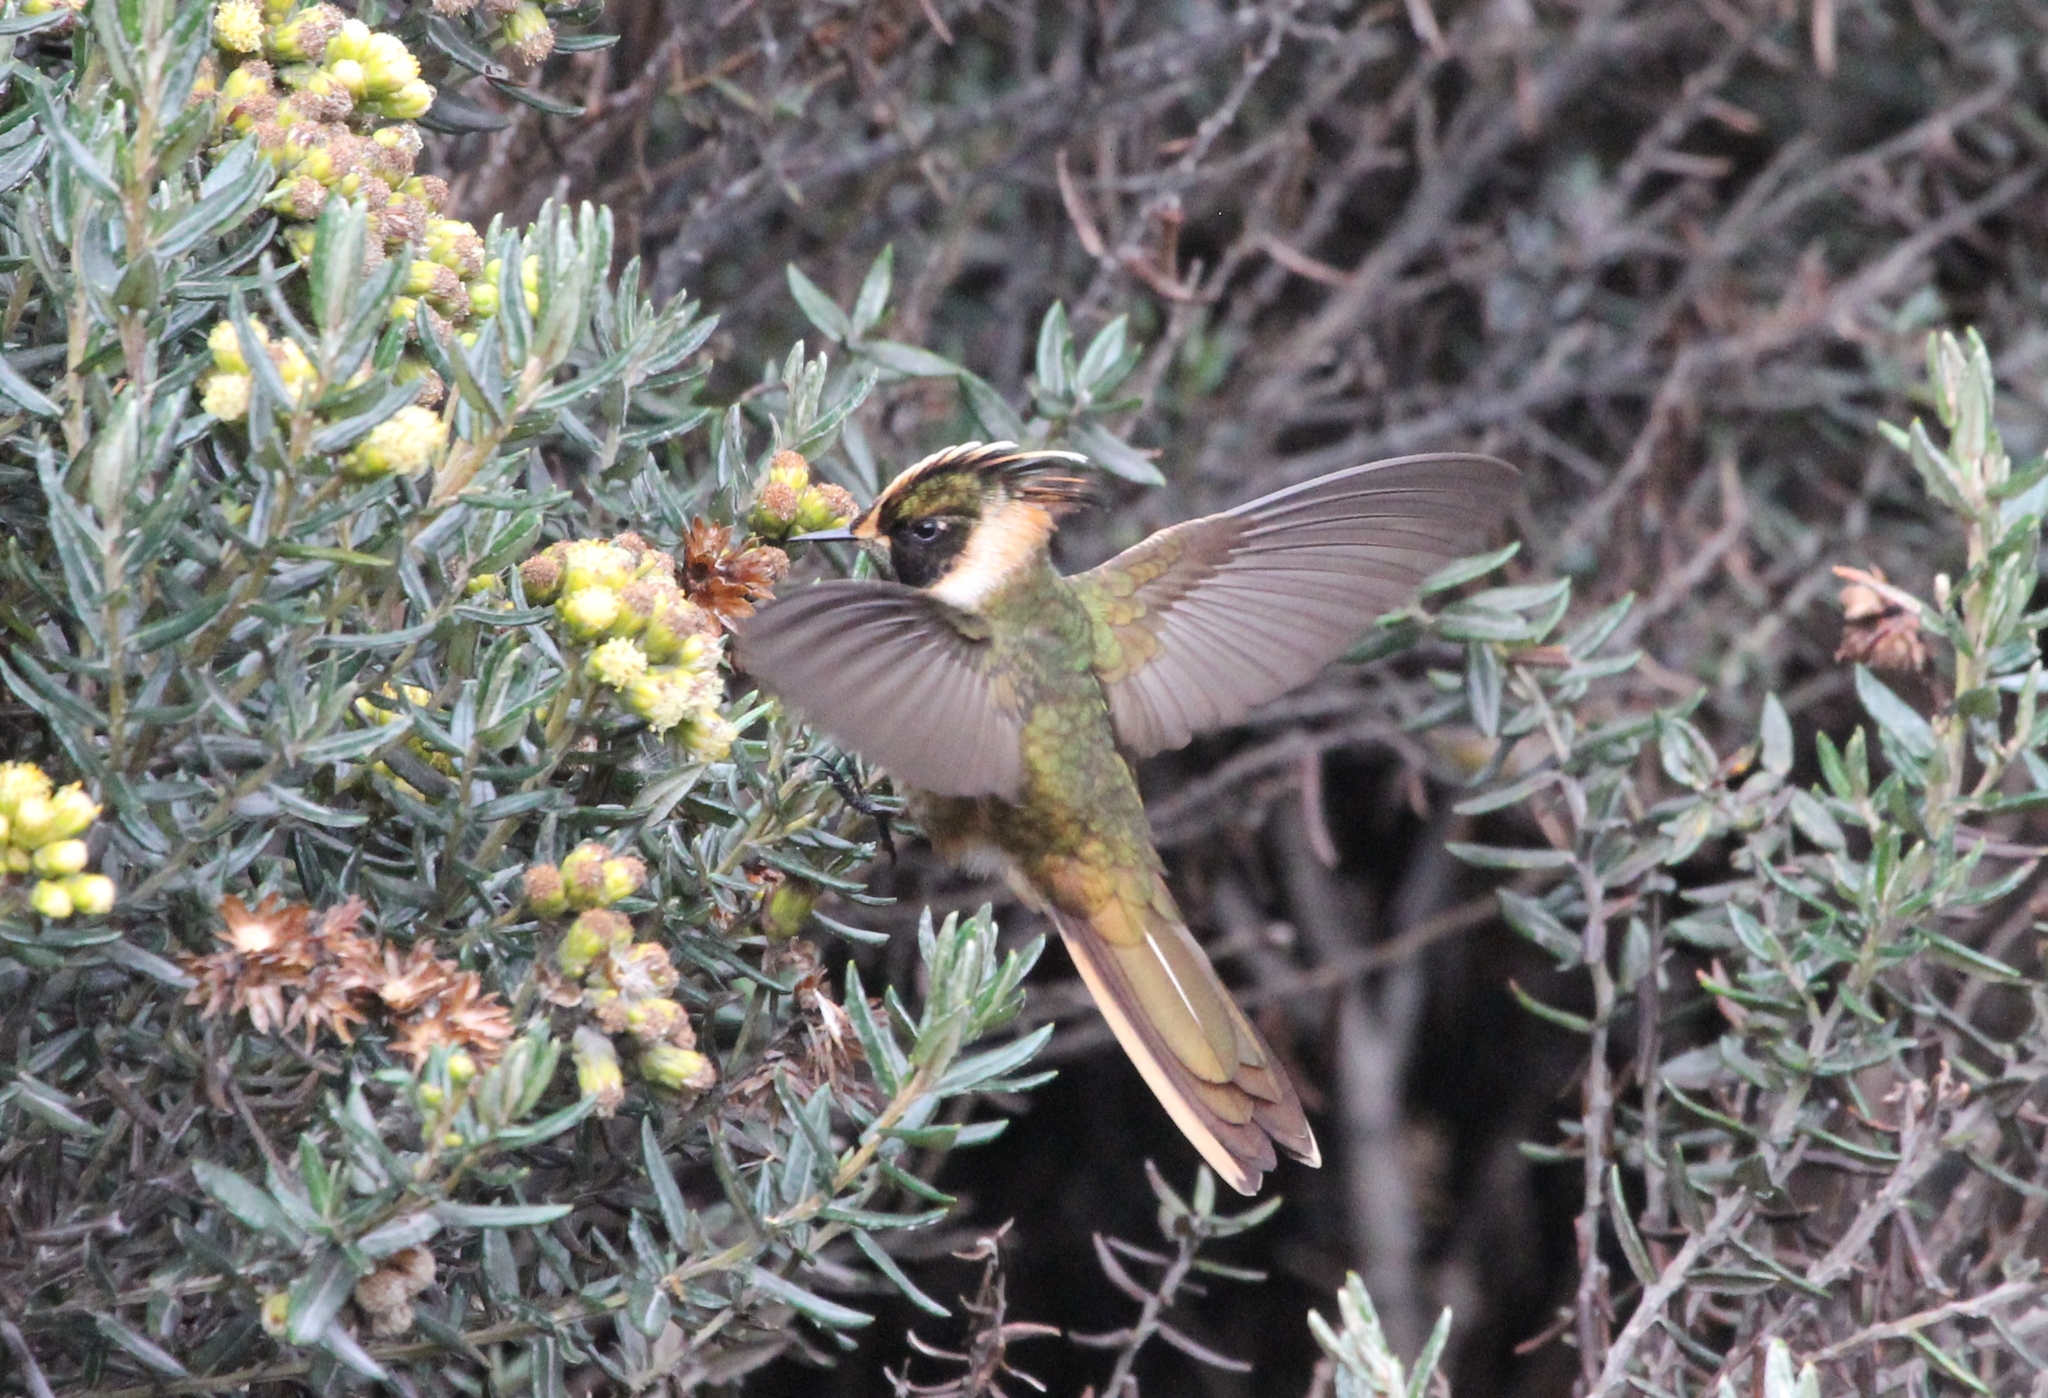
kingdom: Animalia
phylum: Chordata
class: Aves
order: Apodiformes
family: Trochilidae
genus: Oxypogon
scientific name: Oxypogon stuebelii
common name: Buffy helmetcrest
